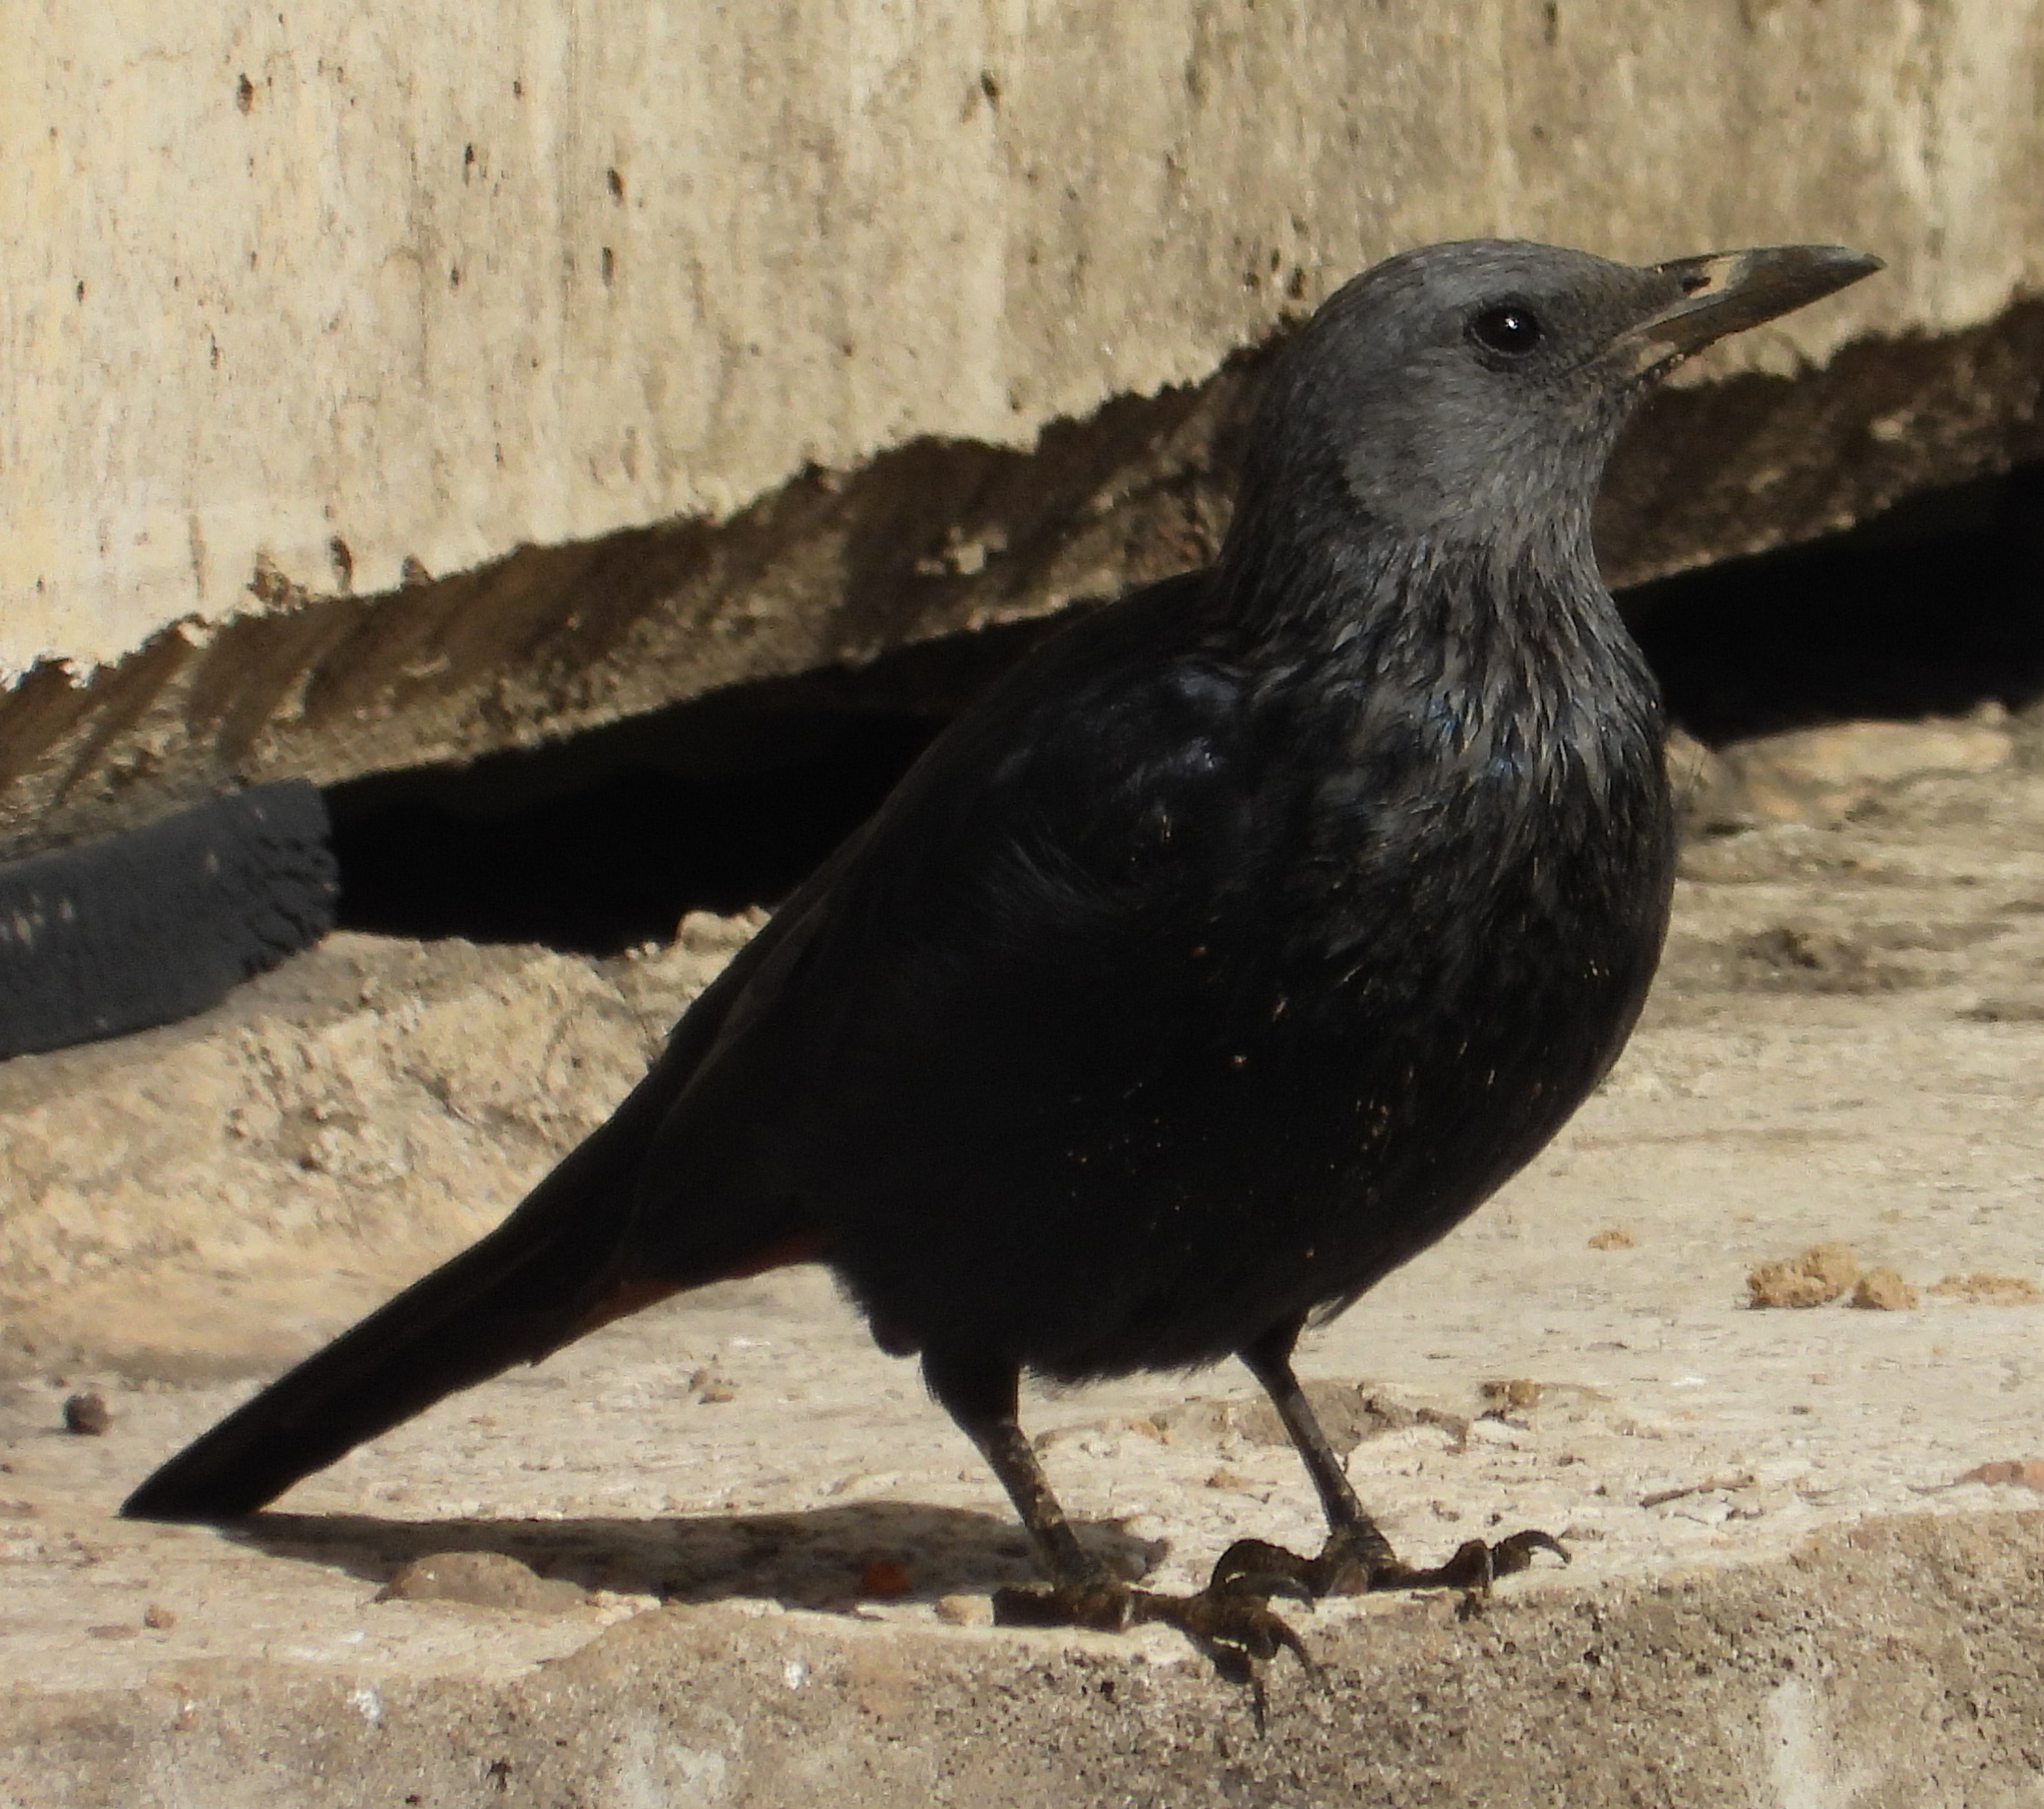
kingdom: Animalia
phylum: Chordata
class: Aves
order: Passeriformes
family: Sturnidae
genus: Onychognathus
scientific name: Onychognathus morio
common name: Red-winged starling
